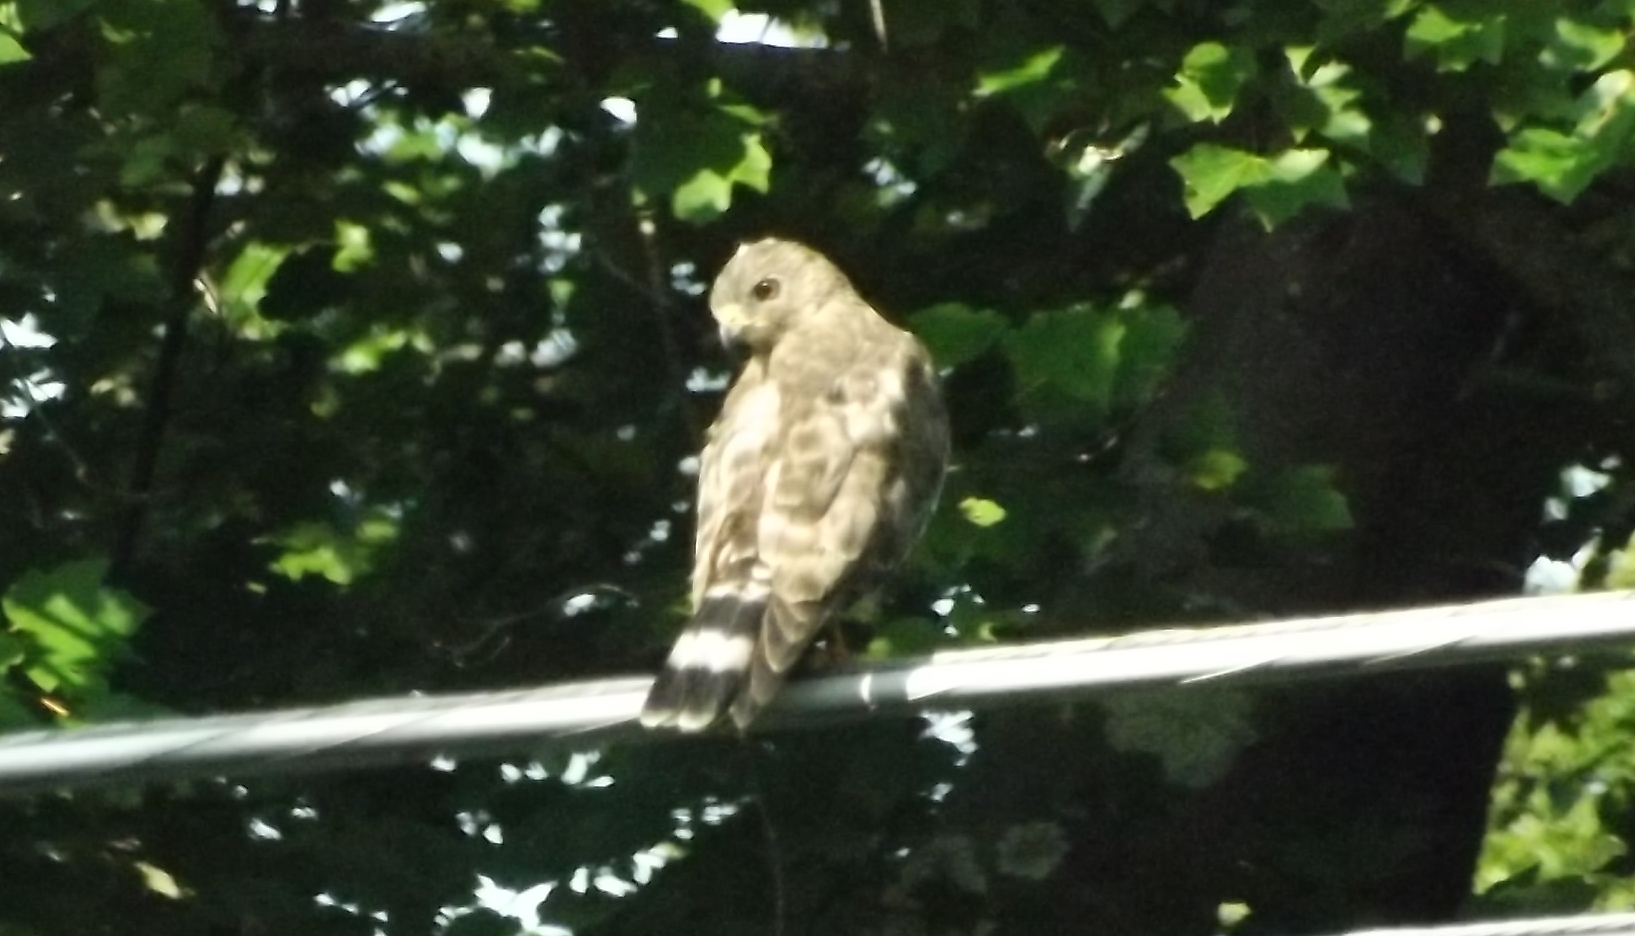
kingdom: Animalia
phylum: Chordata
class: Aves
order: Accipitriformes
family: Accipitridae
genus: Buteo
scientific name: Buteo platypterus
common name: Broad-winged hawk
